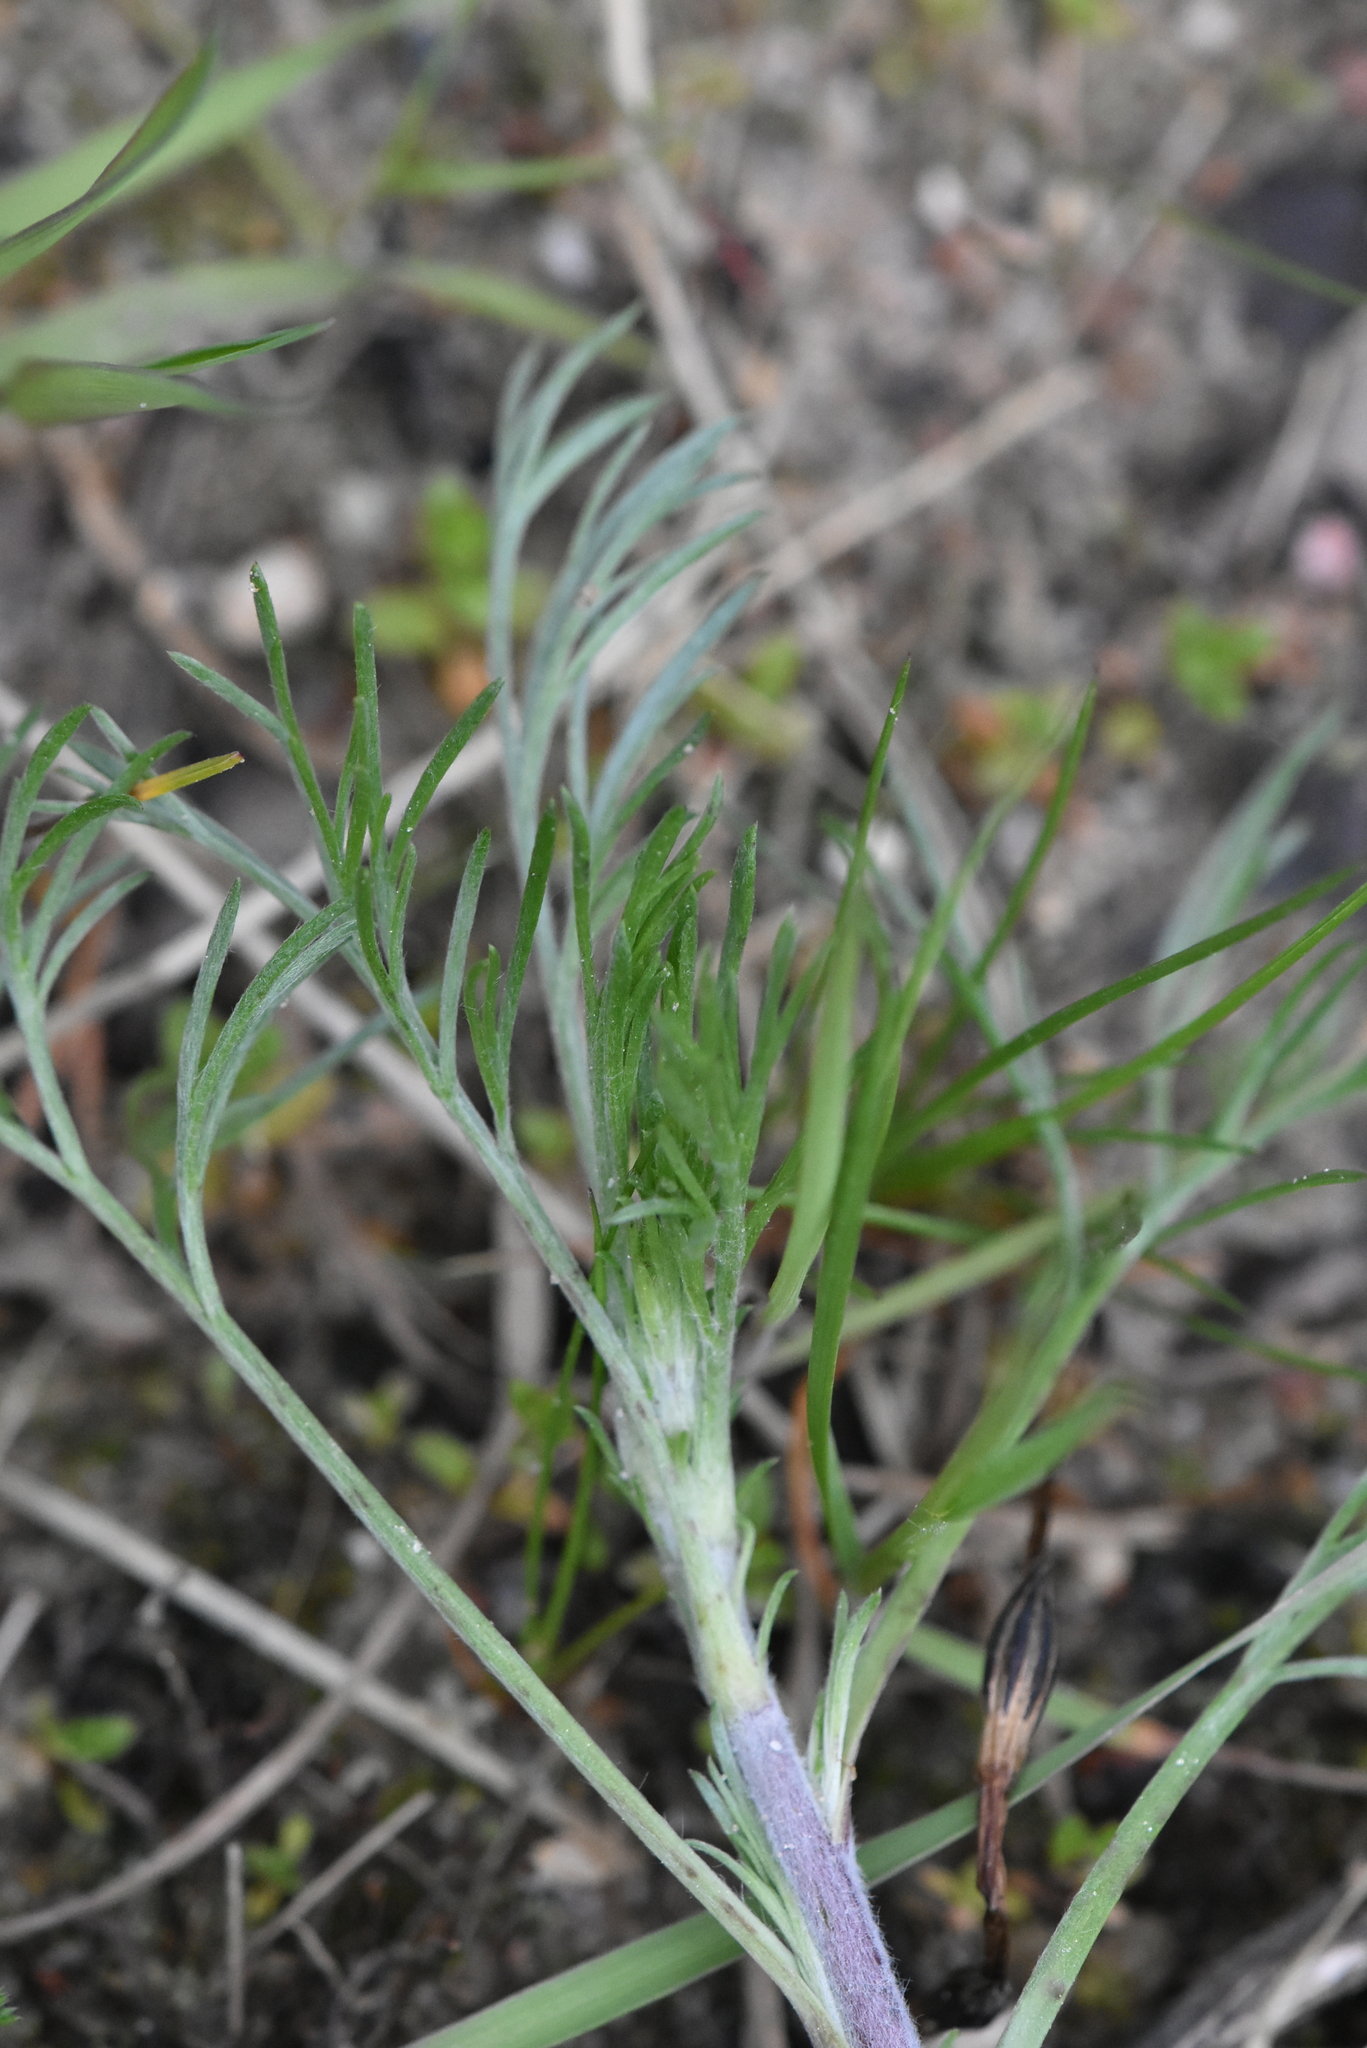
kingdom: Plantae
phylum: Tracheophyta
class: Magnoliopsida
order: Asterales
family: Asteraceae
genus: Artemisia
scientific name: Artemisia campestris
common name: Field wormwood
